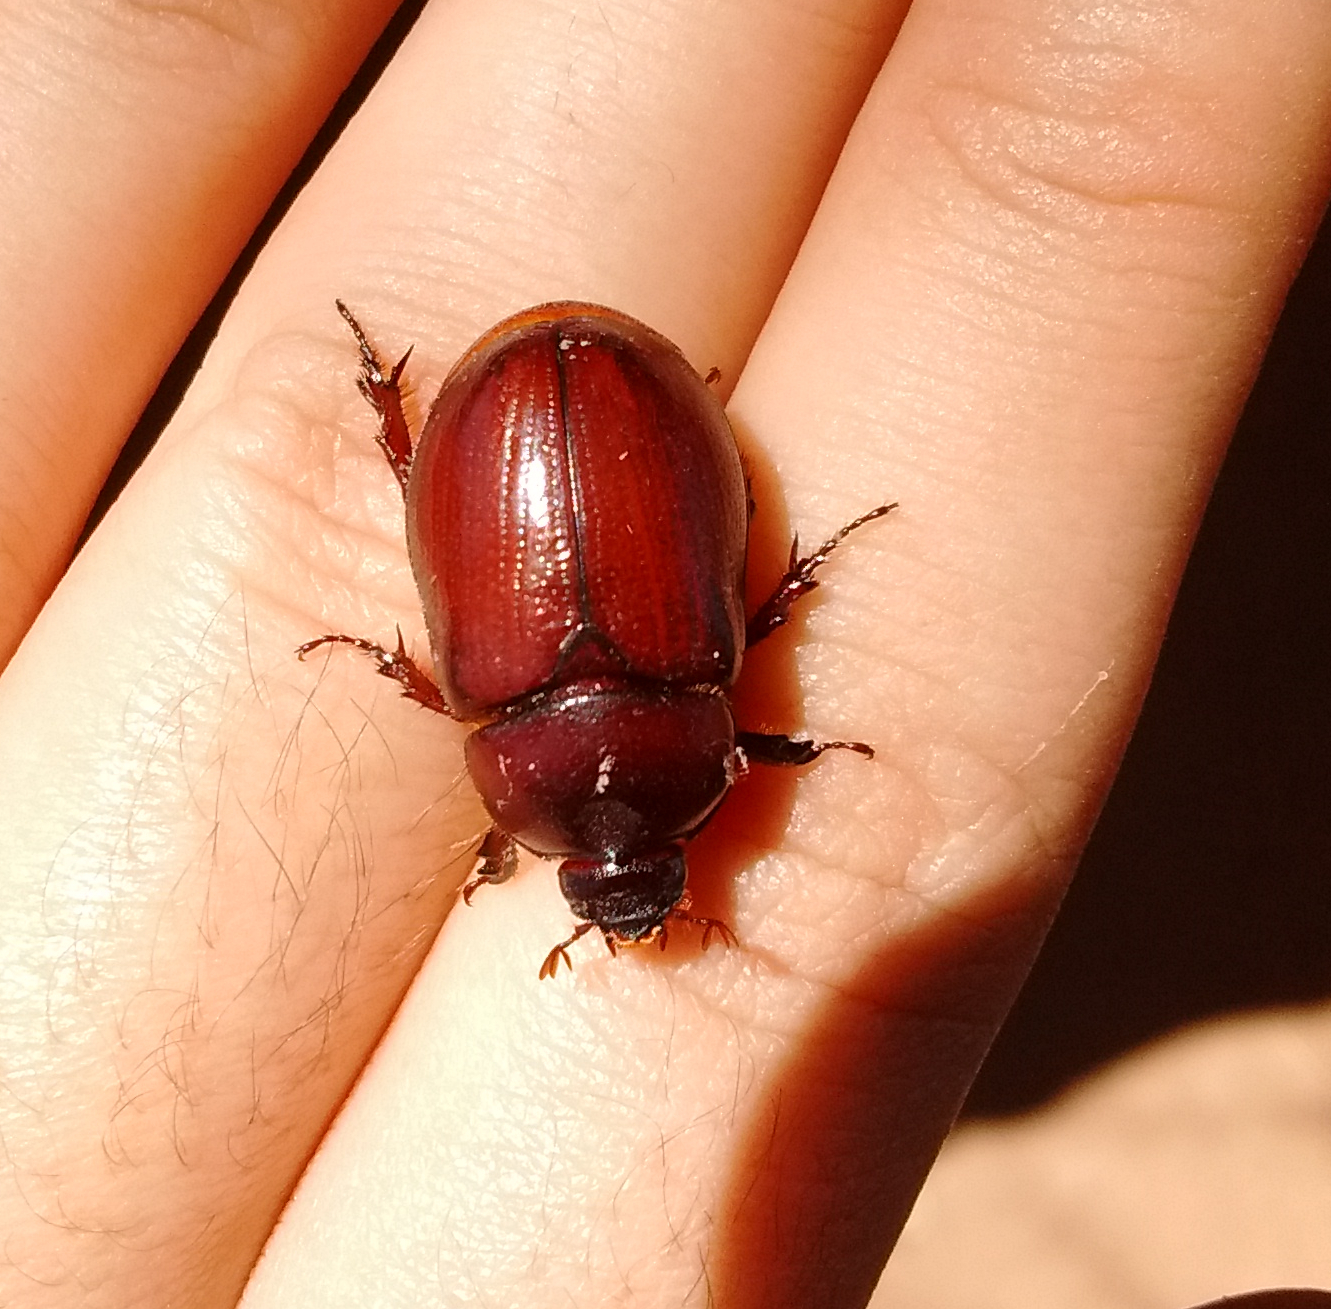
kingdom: Animalia
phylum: Arthropoda
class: Insecta
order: Coleoptera
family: Scarabaeidae
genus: Ligyrus
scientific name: Ligyrus gibbosus
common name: Carrot beetle
